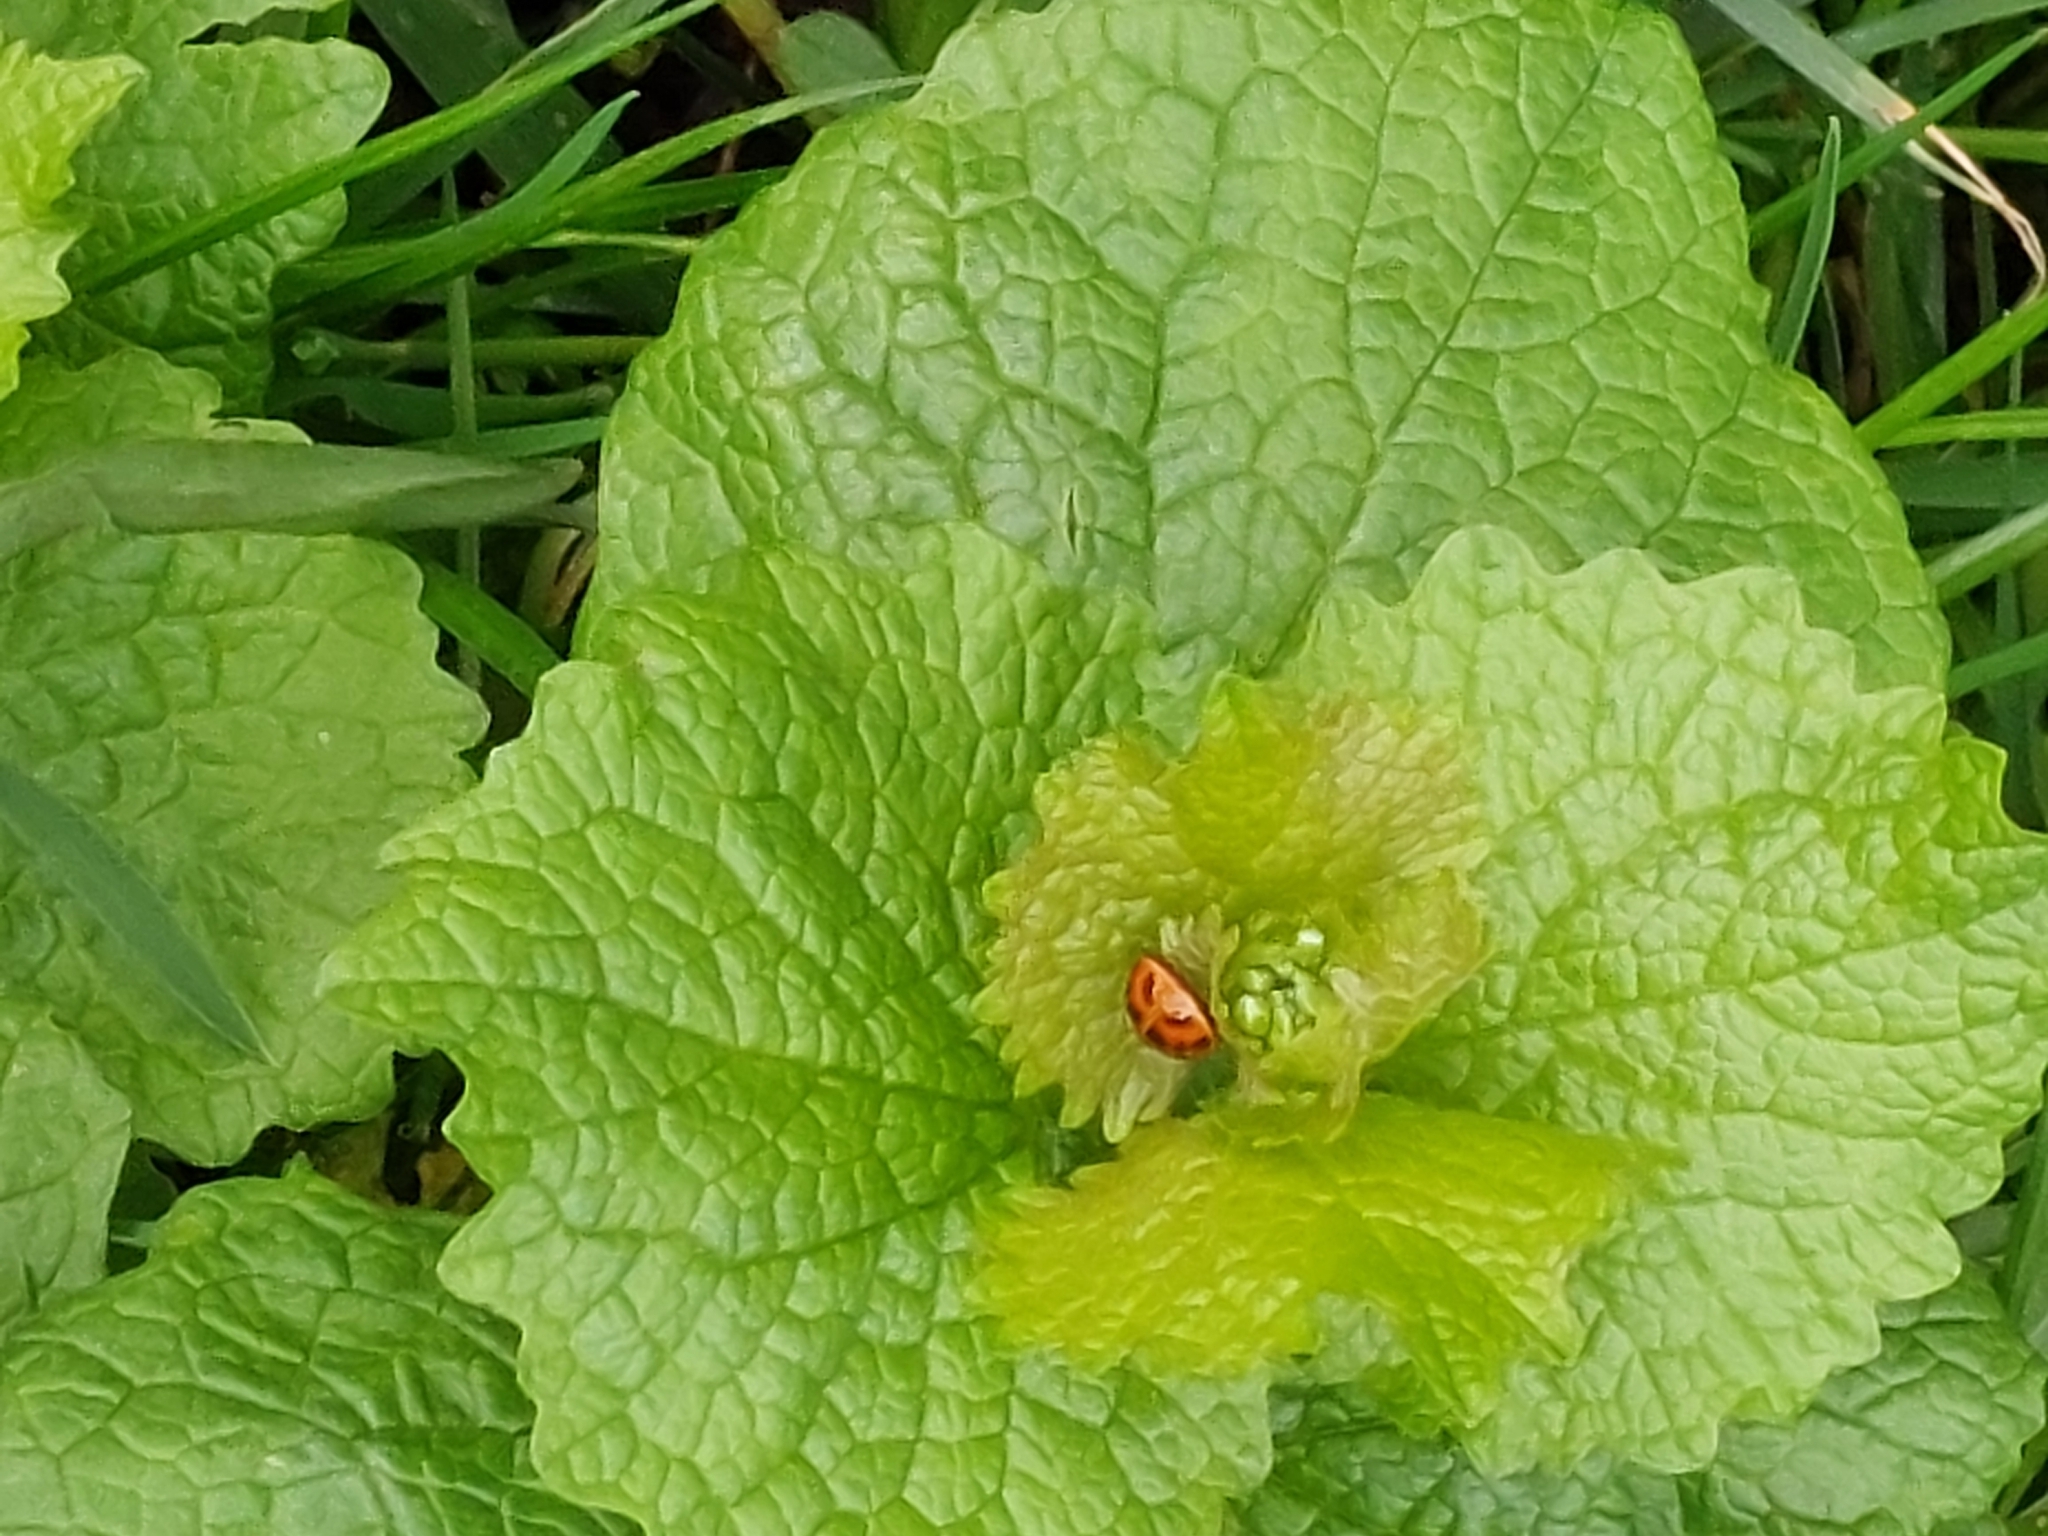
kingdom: Animalia
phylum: Arthropoda
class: Insecta
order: Coleoptera
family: Coccinellidae
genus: Harmonia
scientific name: Harmonia axyridis
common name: Harlequin ladybird
